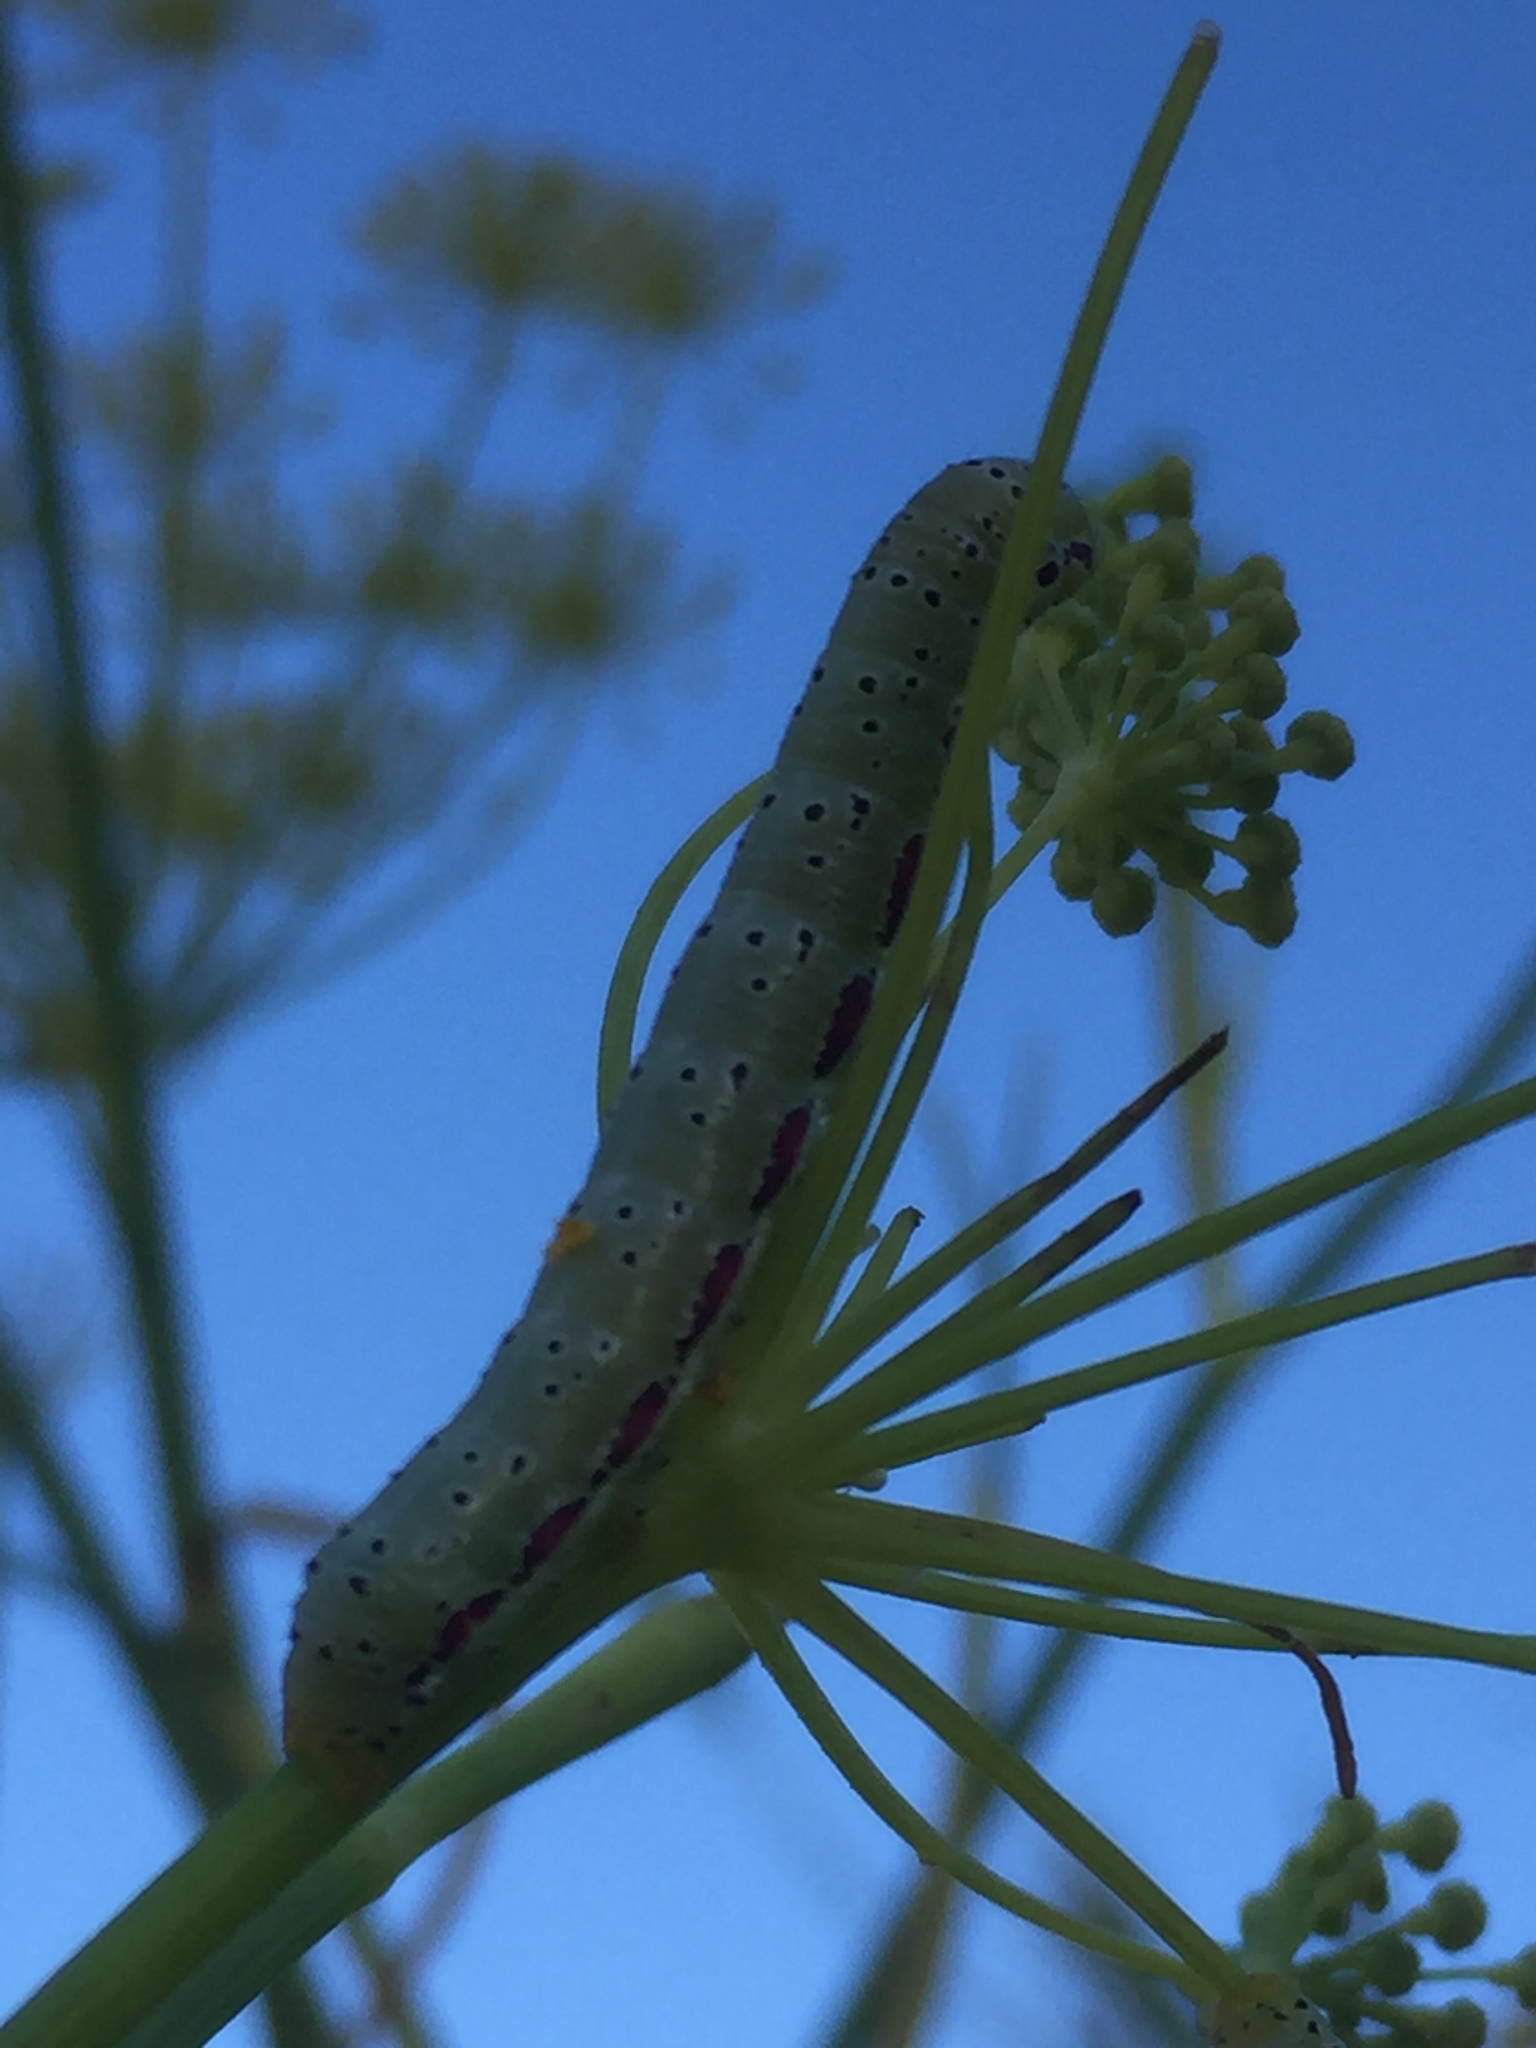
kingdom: Plantae
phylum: Tracheophyta
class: Magnoliopsida
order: Apiales
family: Apiaceae
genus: Foeniculum
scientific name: Foeniculum vulgare
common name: Fennel
